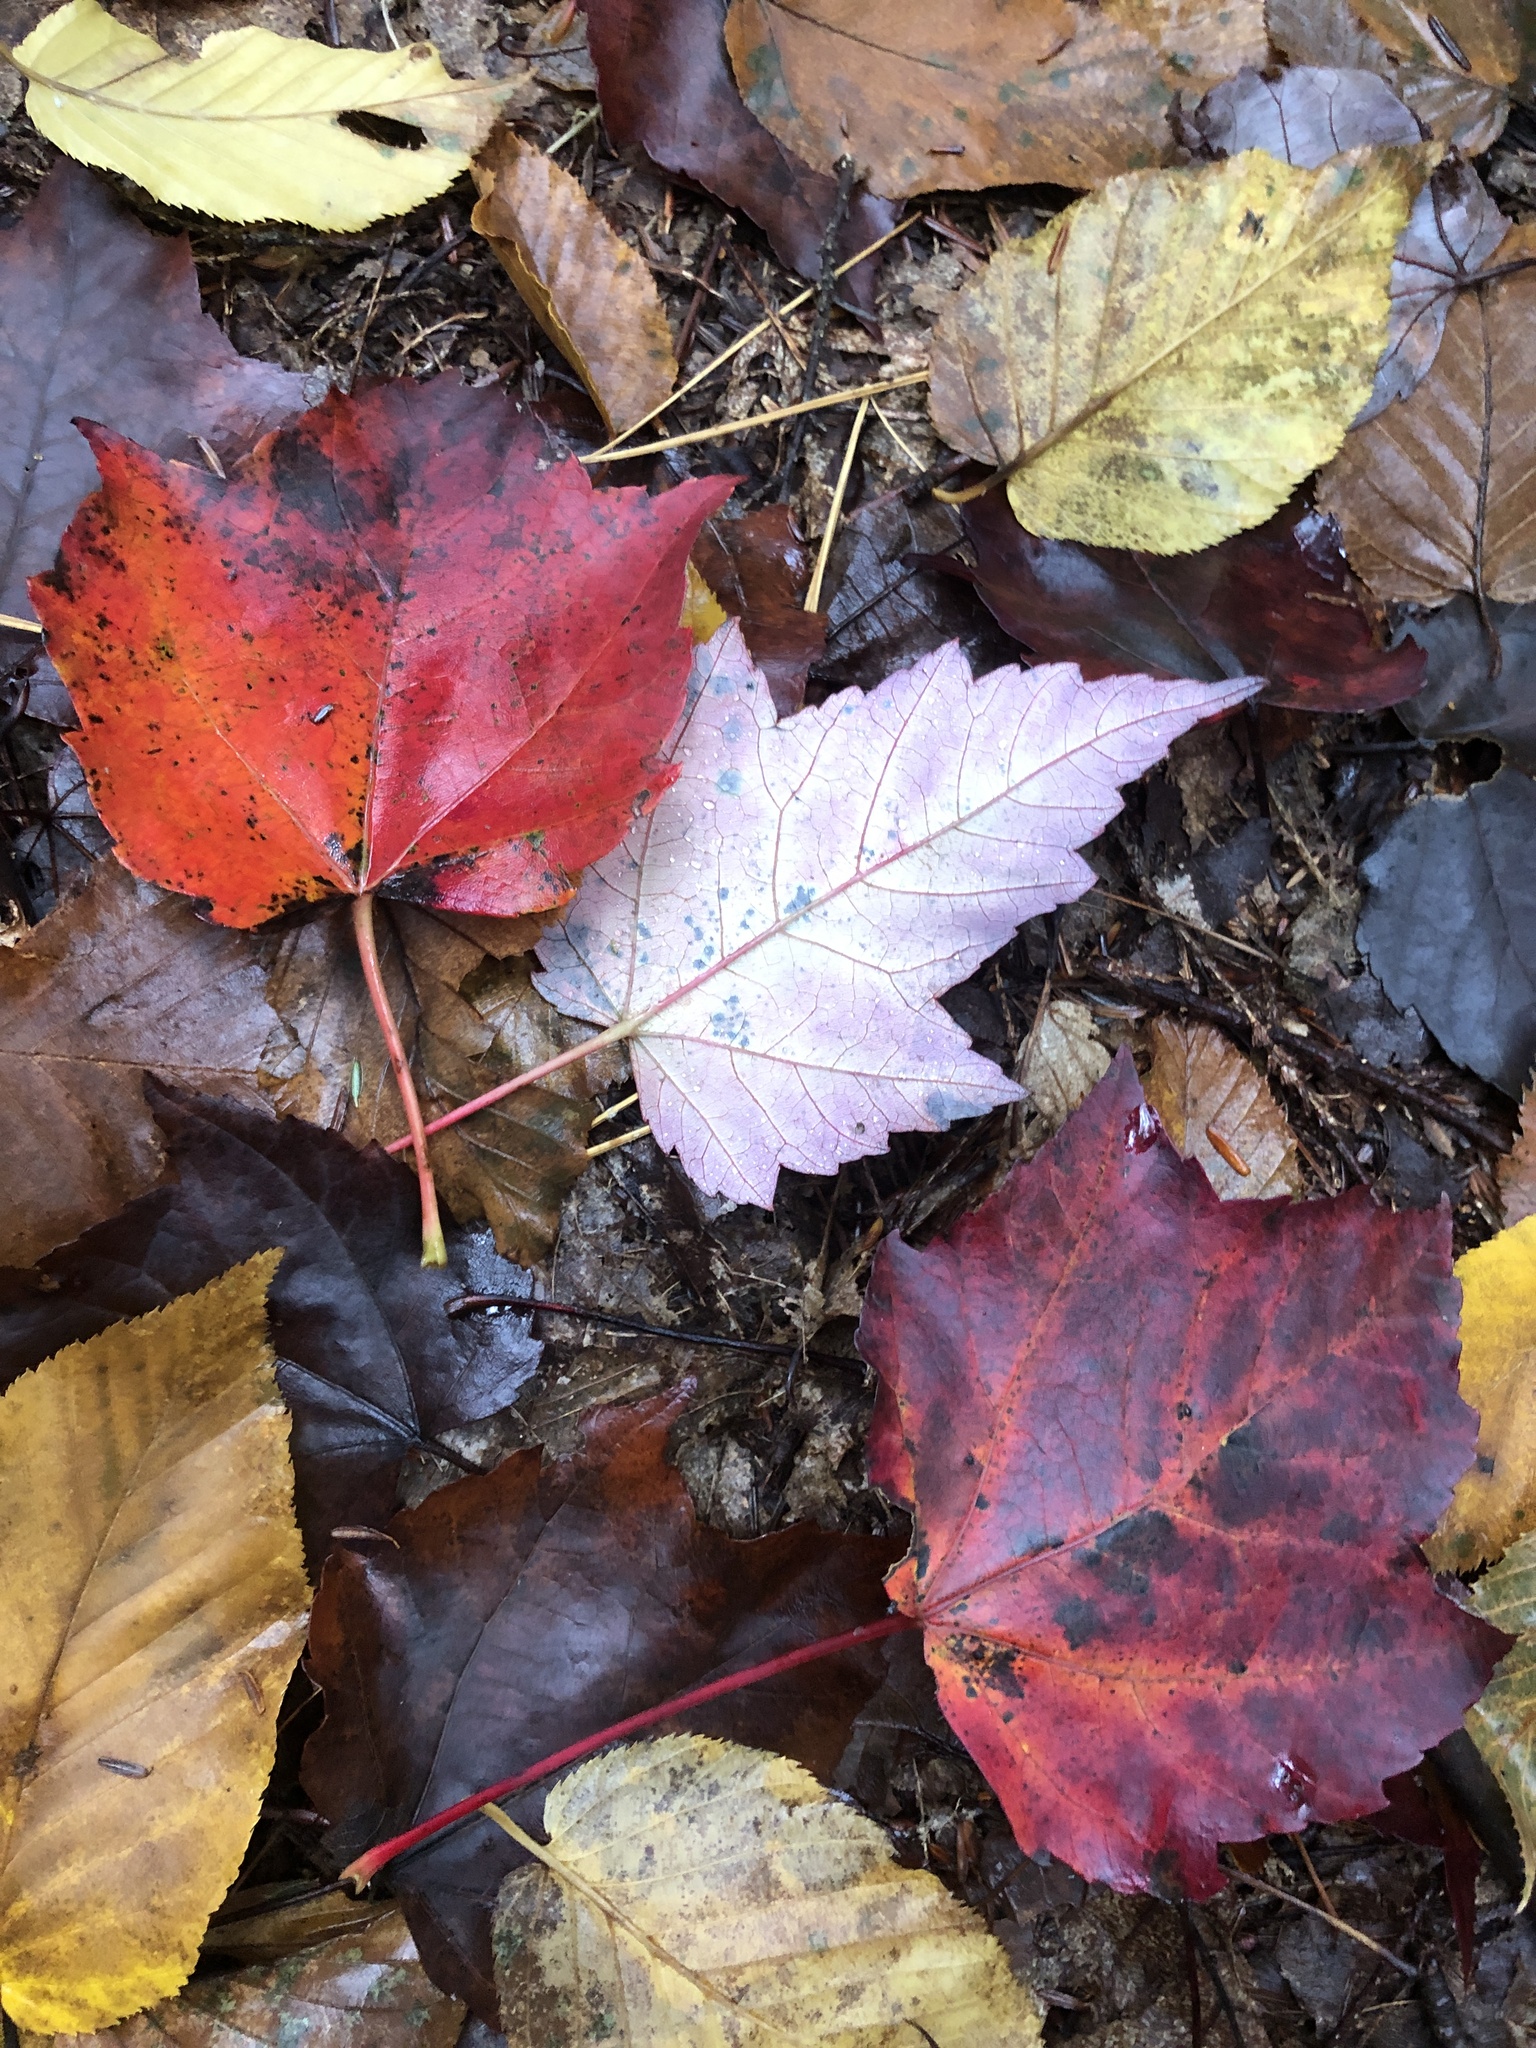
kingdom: Plantae
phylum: Tracheophyta
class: Magnoliopsida
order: Sapindales
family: Sapindaceae
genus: Acer
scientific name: Acer rubrum
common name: Red maple
